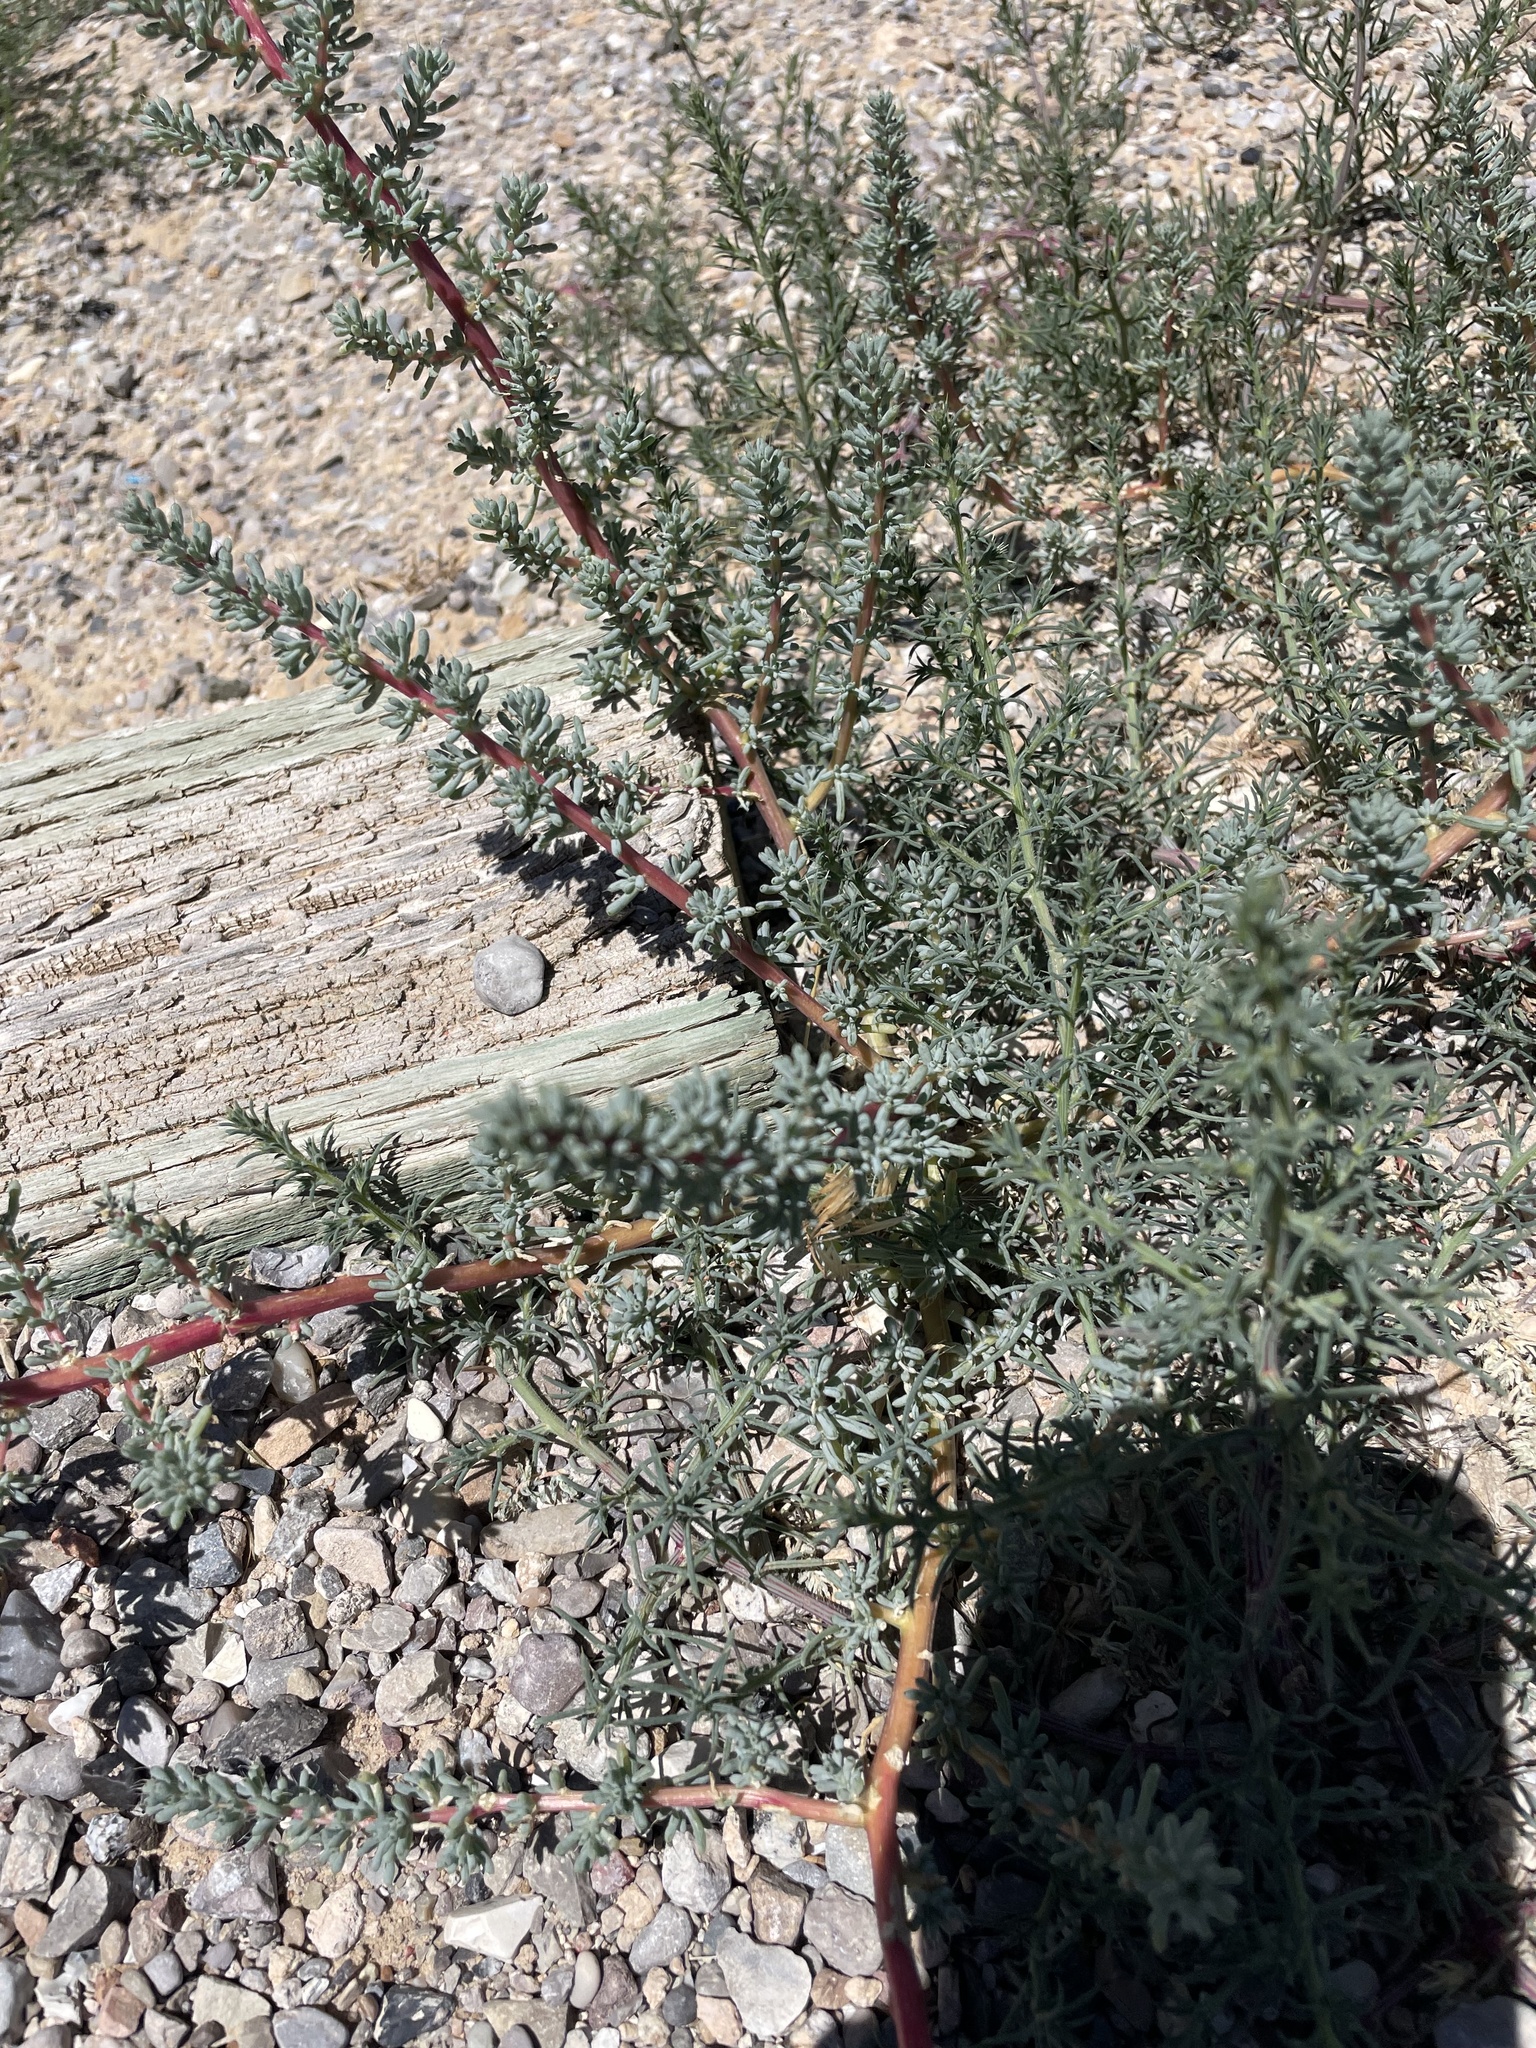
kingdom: Plantae
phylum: Tracheophyta
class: Magnoliopsida
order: Caryophyllales
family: Amaranthaceae
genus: Halogeton
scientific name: Halogeton glomeratus
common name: Saltlover
